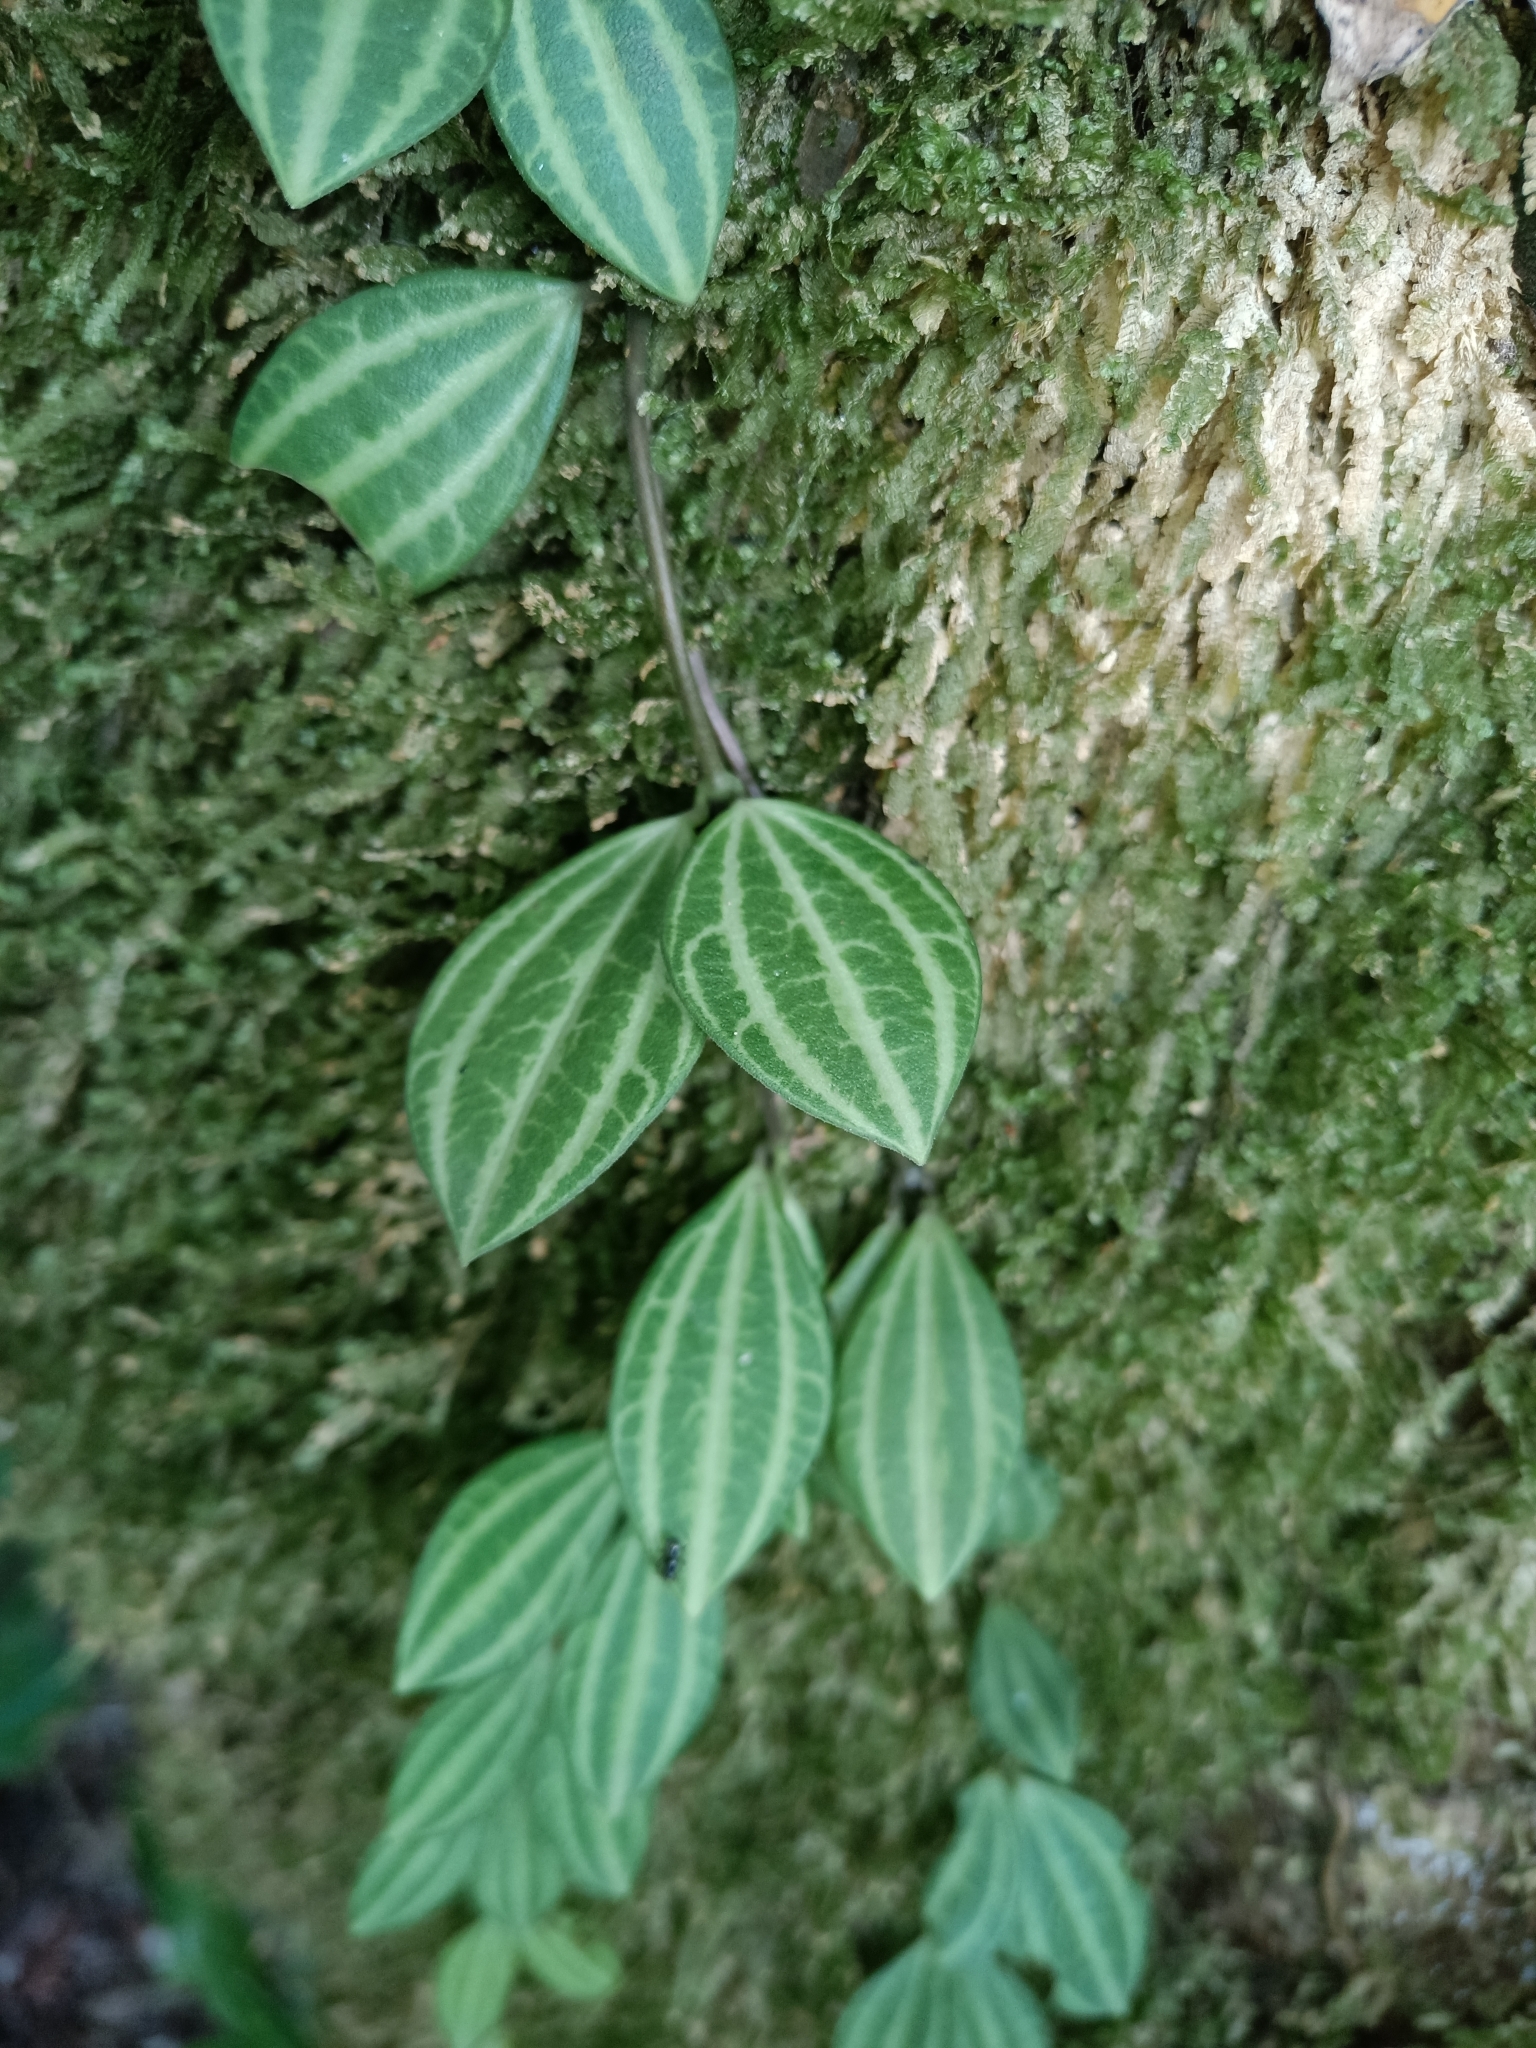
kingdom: Plantae
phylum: Tracheophyta
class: Magnoliopsida
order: Piperales
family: Piperaceae
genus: Peperomia
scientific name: Peperomia quadrangularis
